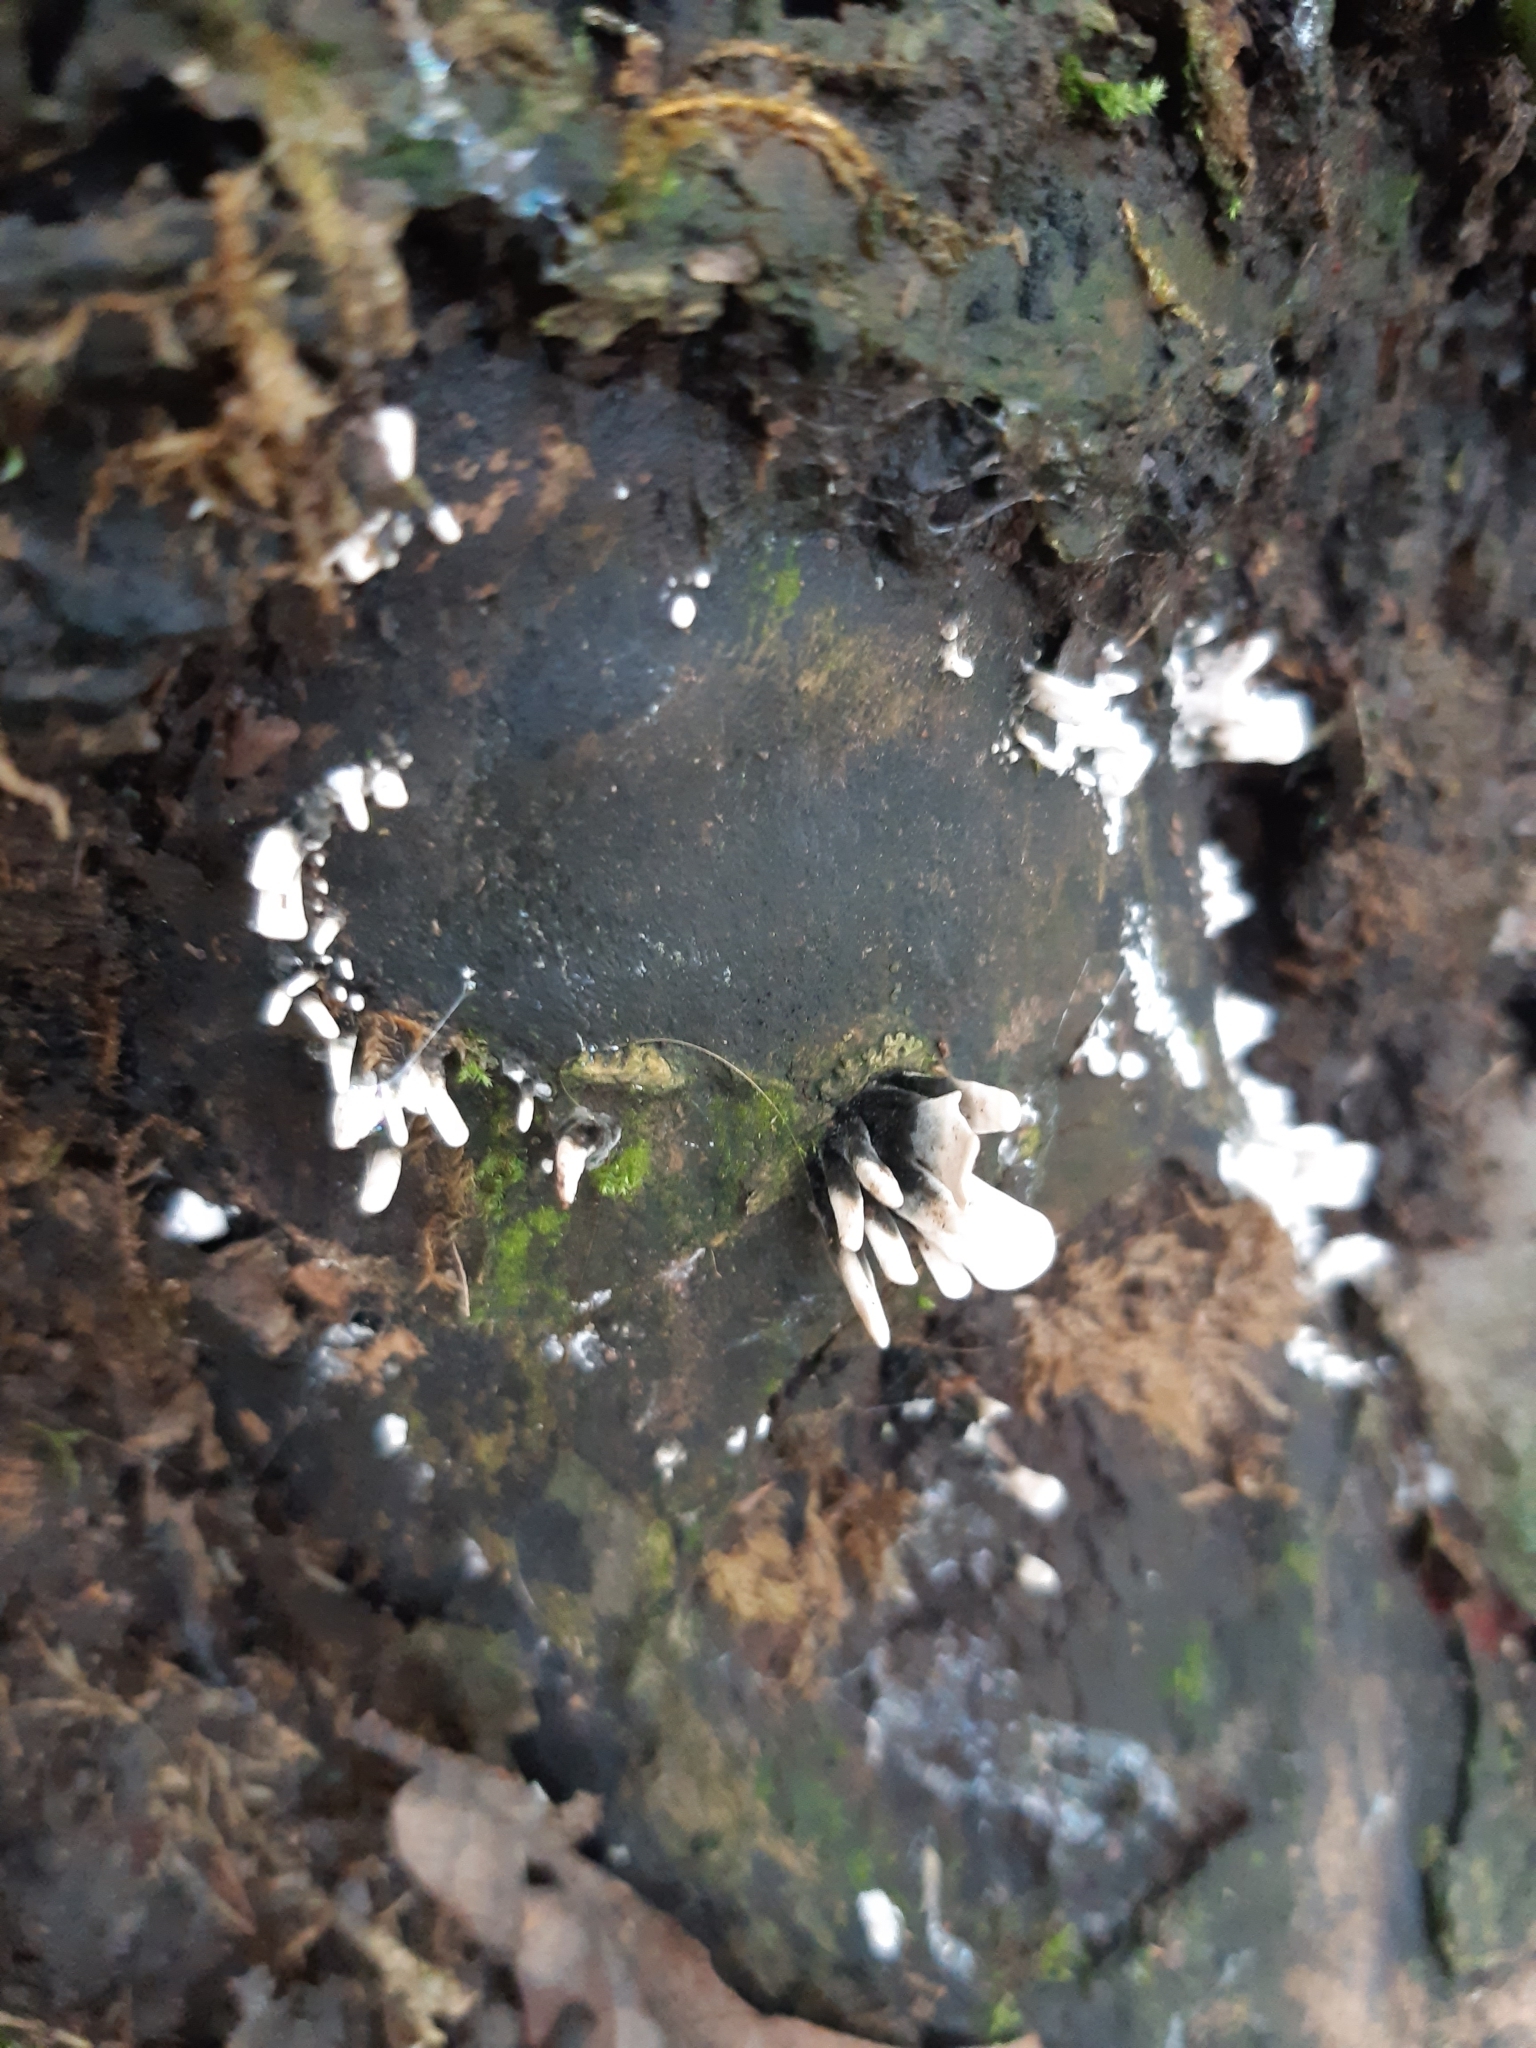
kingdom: Fungi
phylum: Ascomycota
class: Sordariomycetes
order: Xylariales
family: Xylariaceae
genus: Xylaria
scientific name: Xylaria hypoxylon
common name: Candle-snuff fungus
